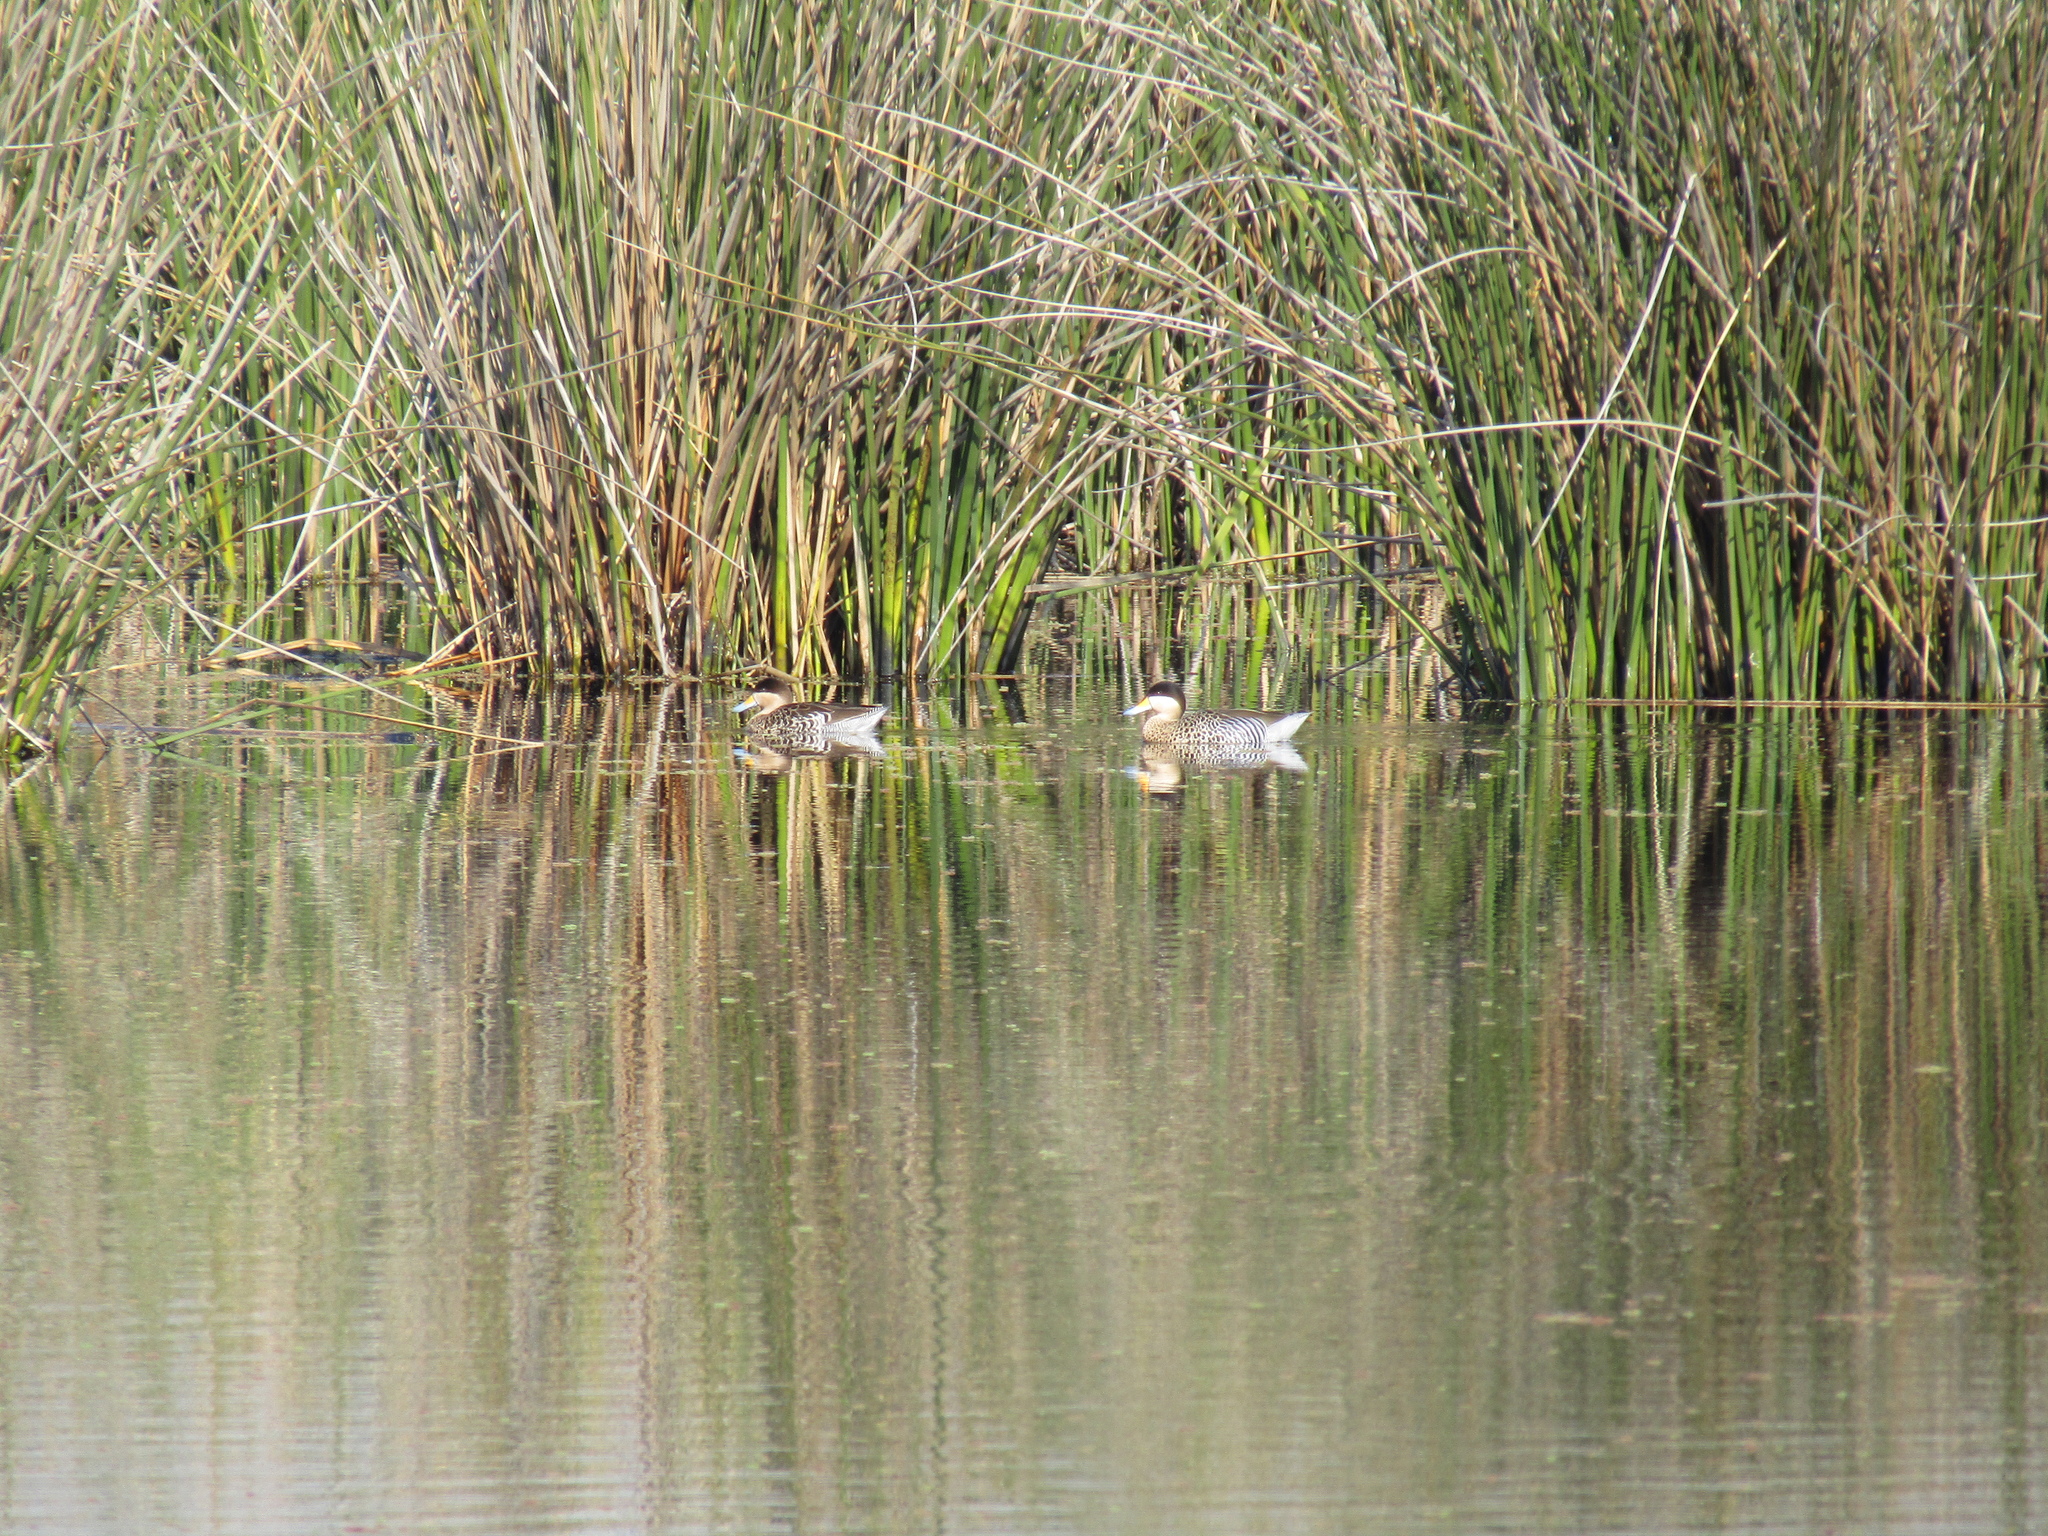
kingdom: Animalia
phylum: Chordata
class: Aves
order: Anseriformes
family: Anatidae
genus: Spatula
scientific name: Spatula versicolor
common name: Silver teal
